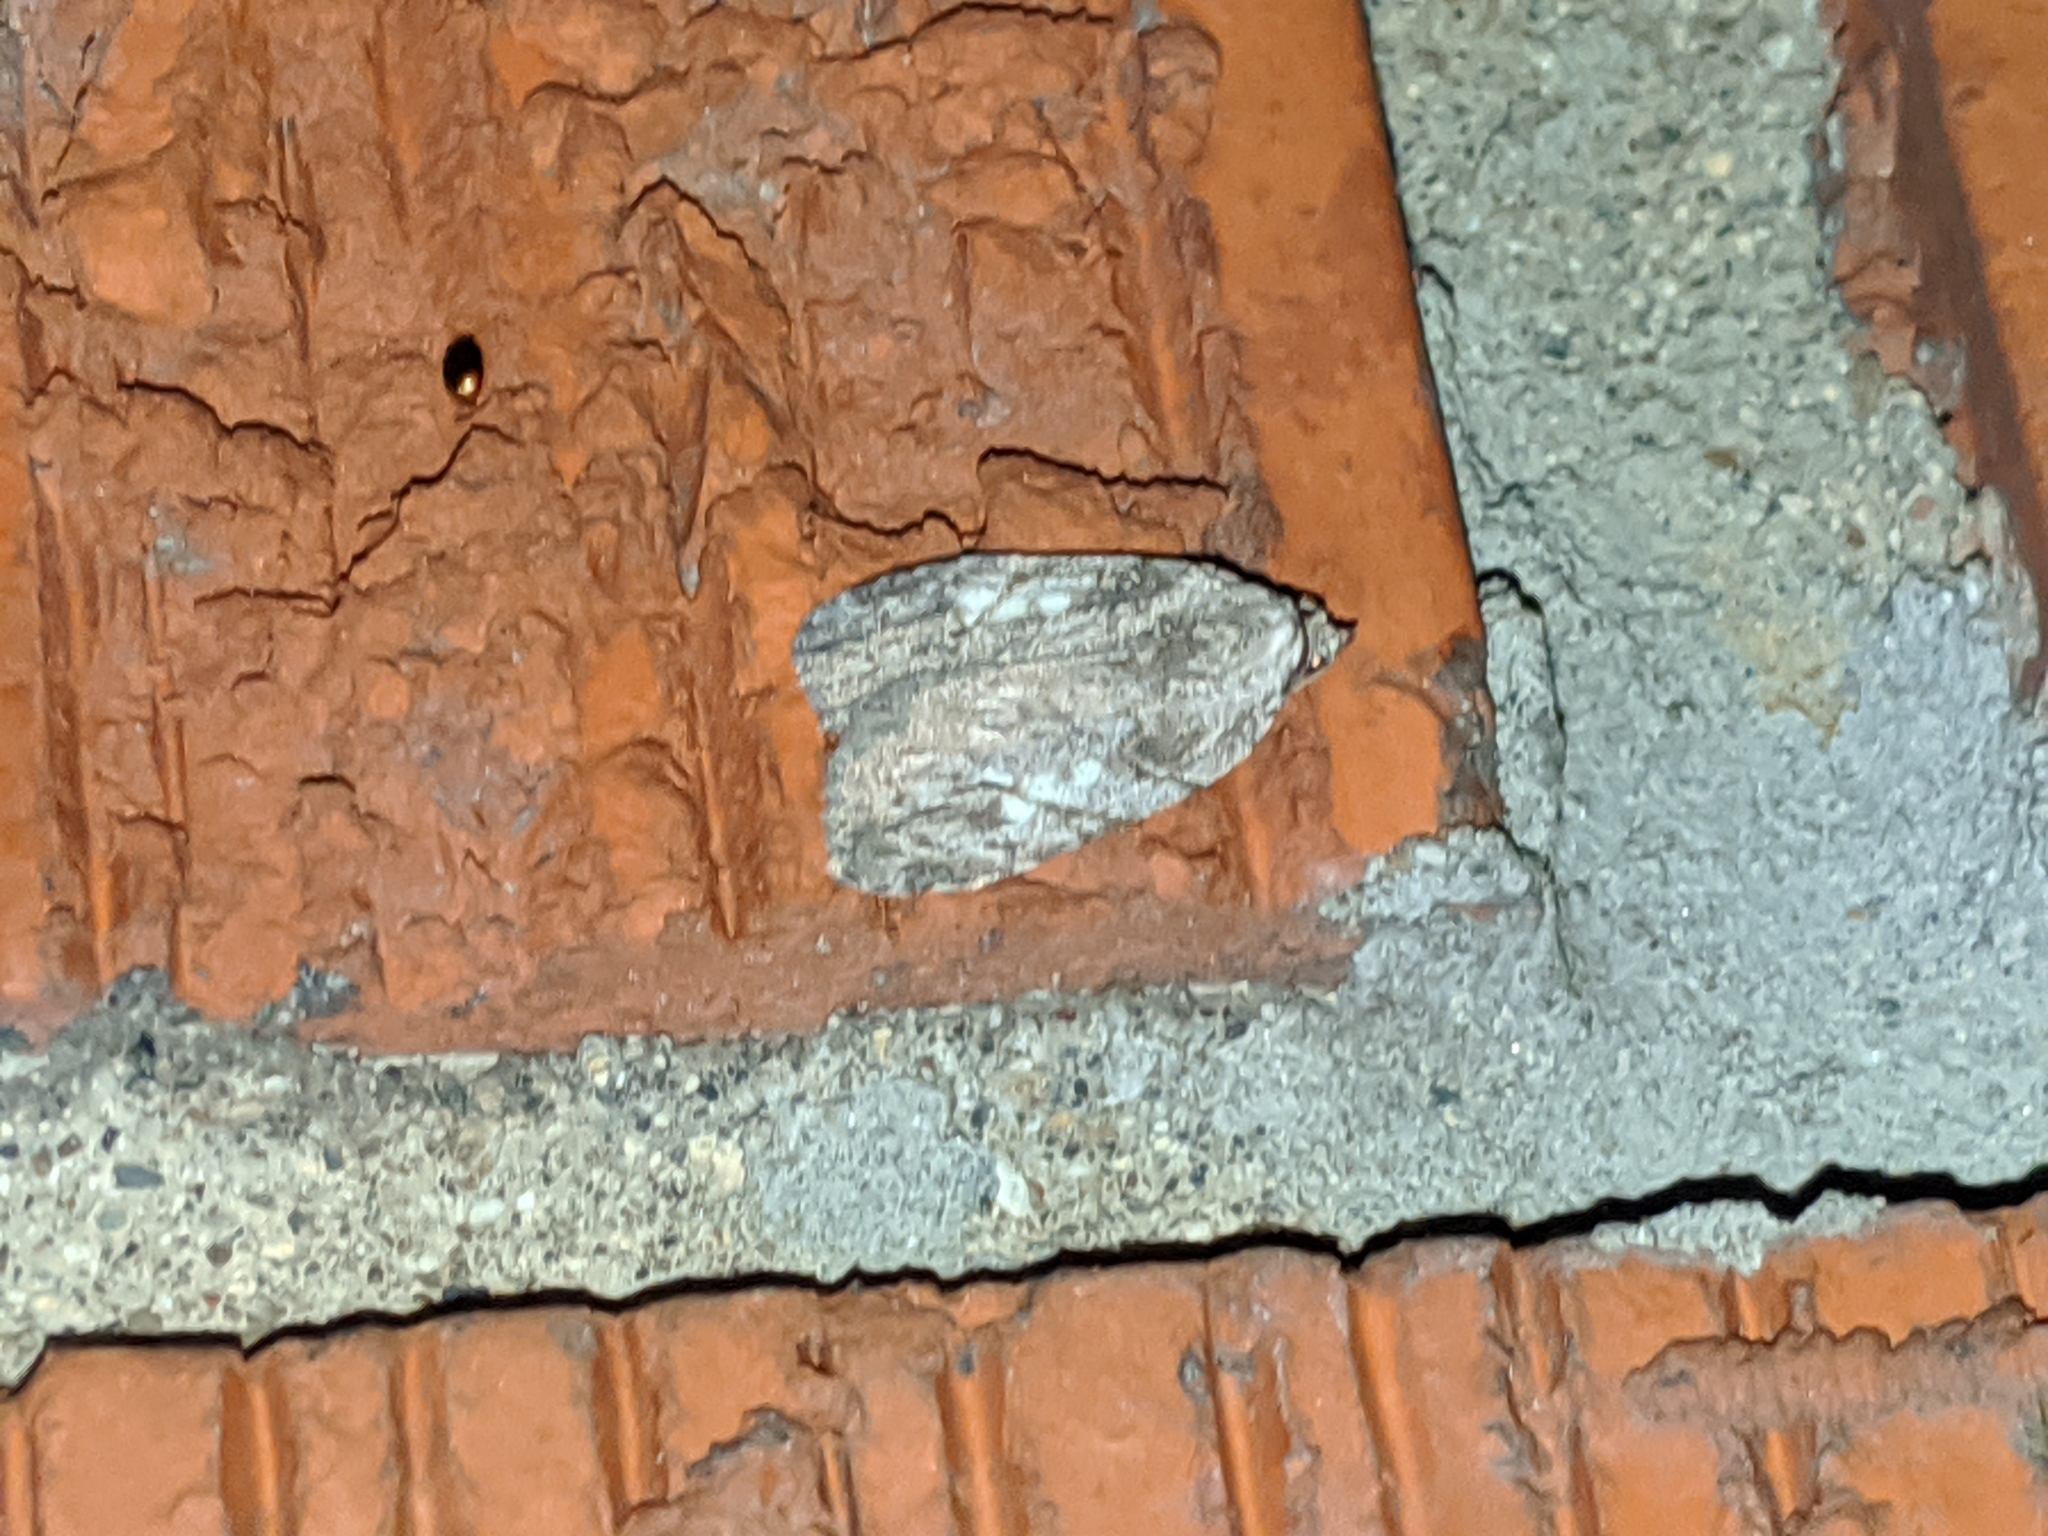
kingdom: Animalia
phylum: Arthropoda
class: Insecta
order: Lepidoptera
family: Noctuidae
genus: Balsa
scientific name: Balsa labecula
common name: White-blotched balsa moth
